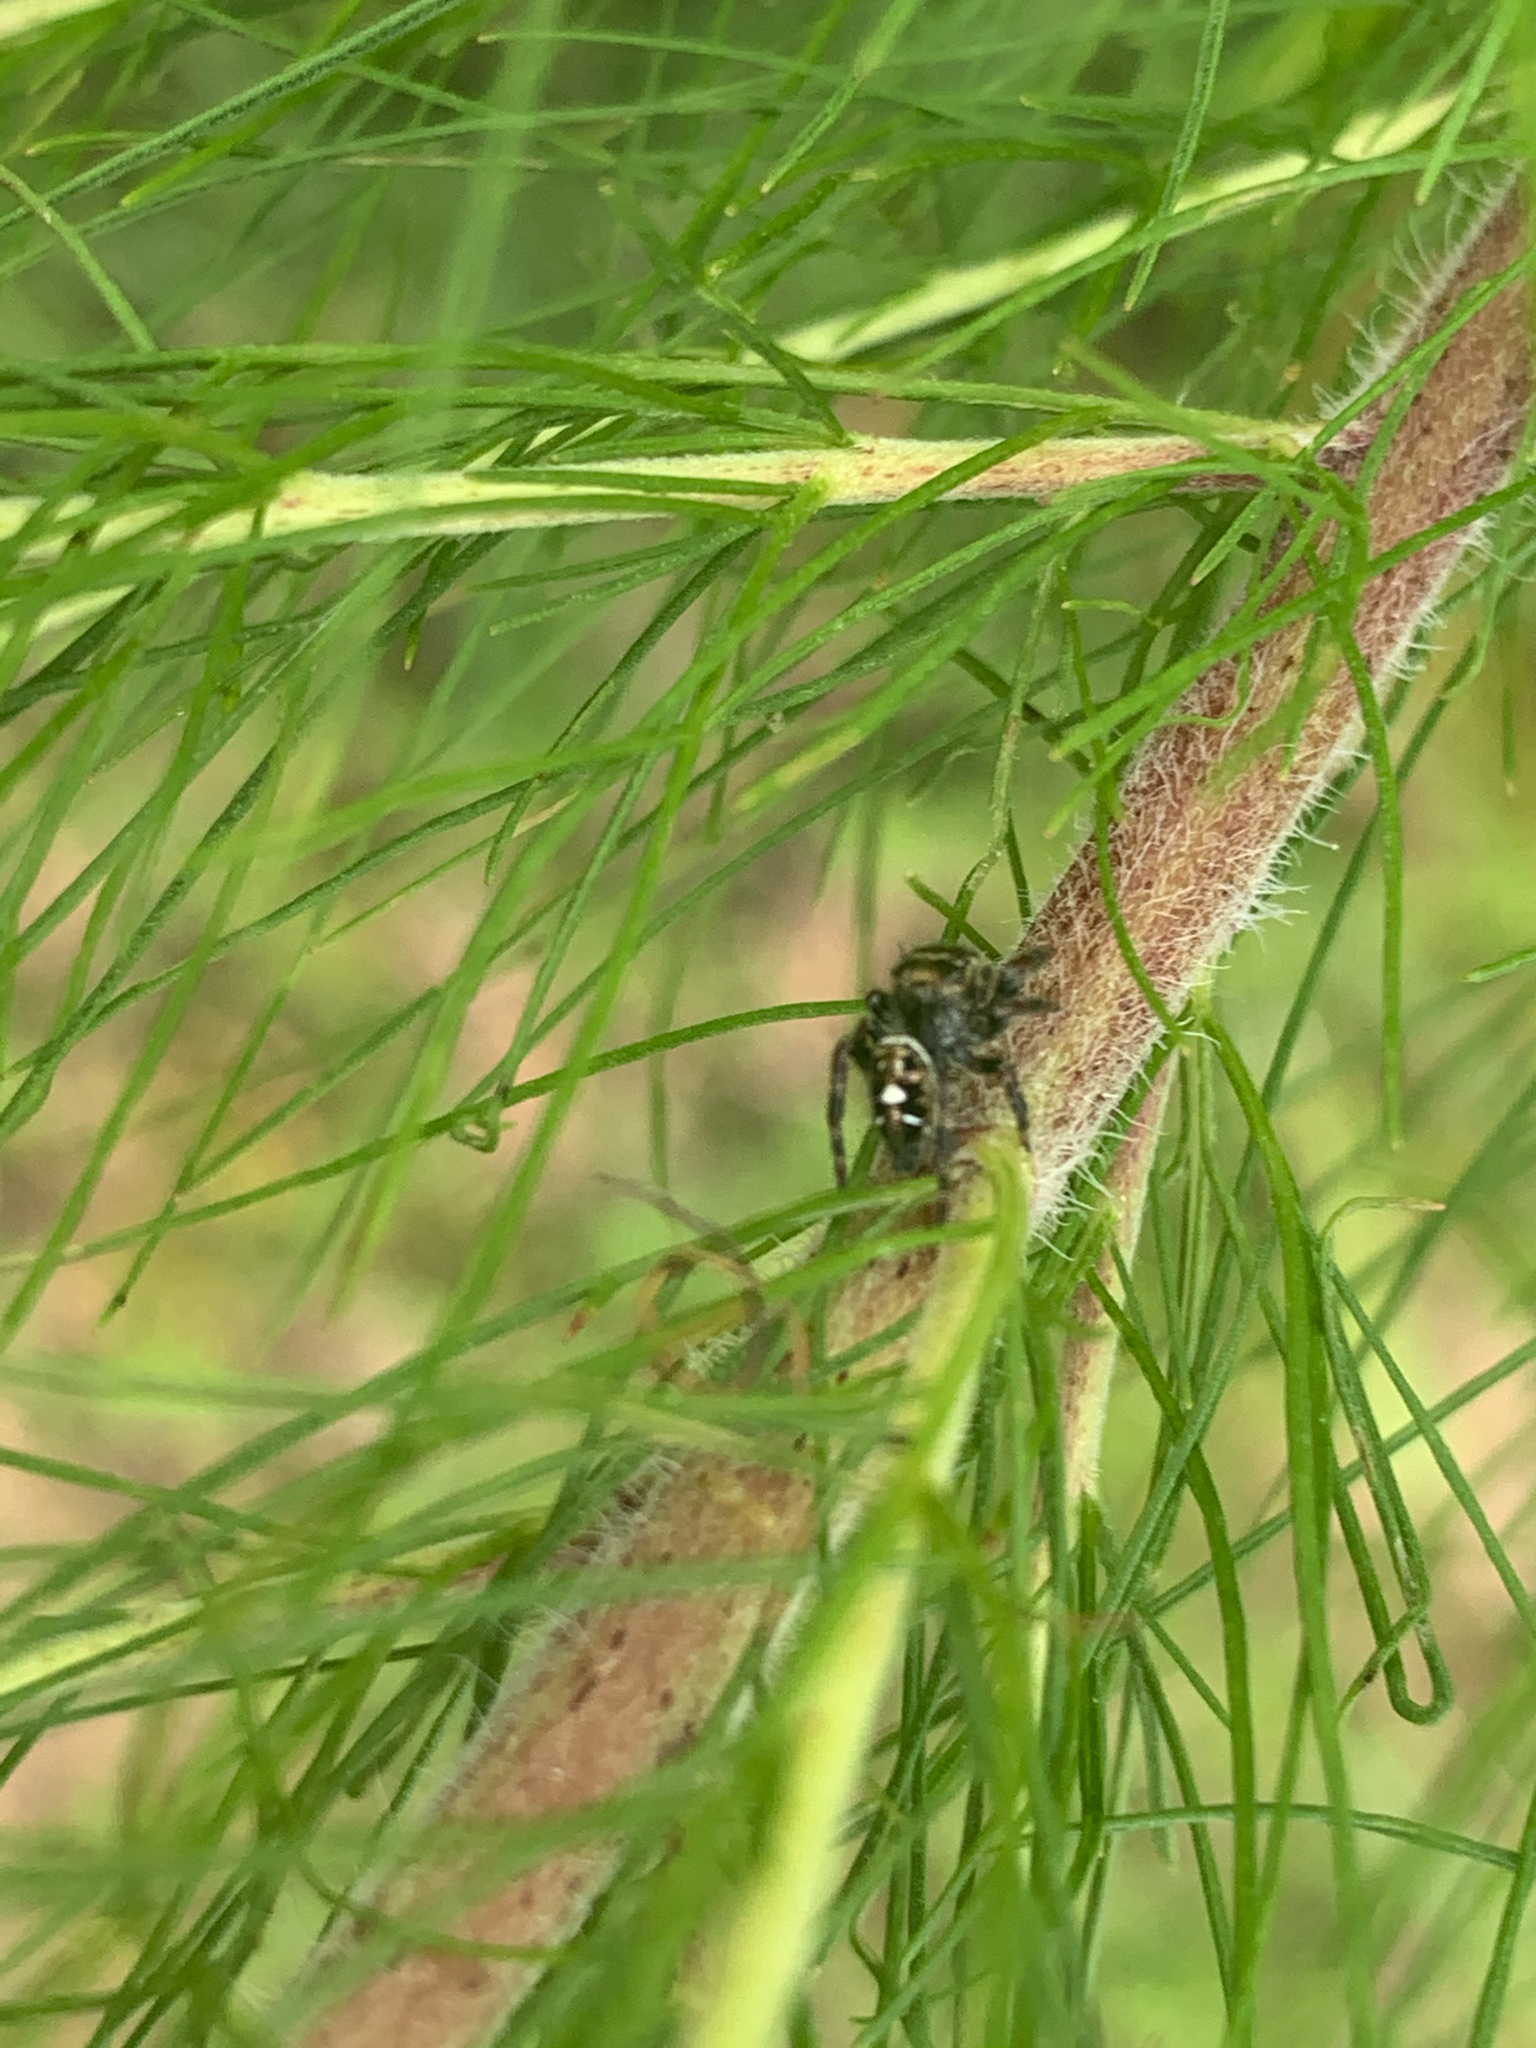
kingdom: Animalia
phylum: Arthropoda
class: Arachnida
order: Araneae
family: Salticidae
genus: Phidippus
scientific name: Phidippus audax
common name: Bold jumper
